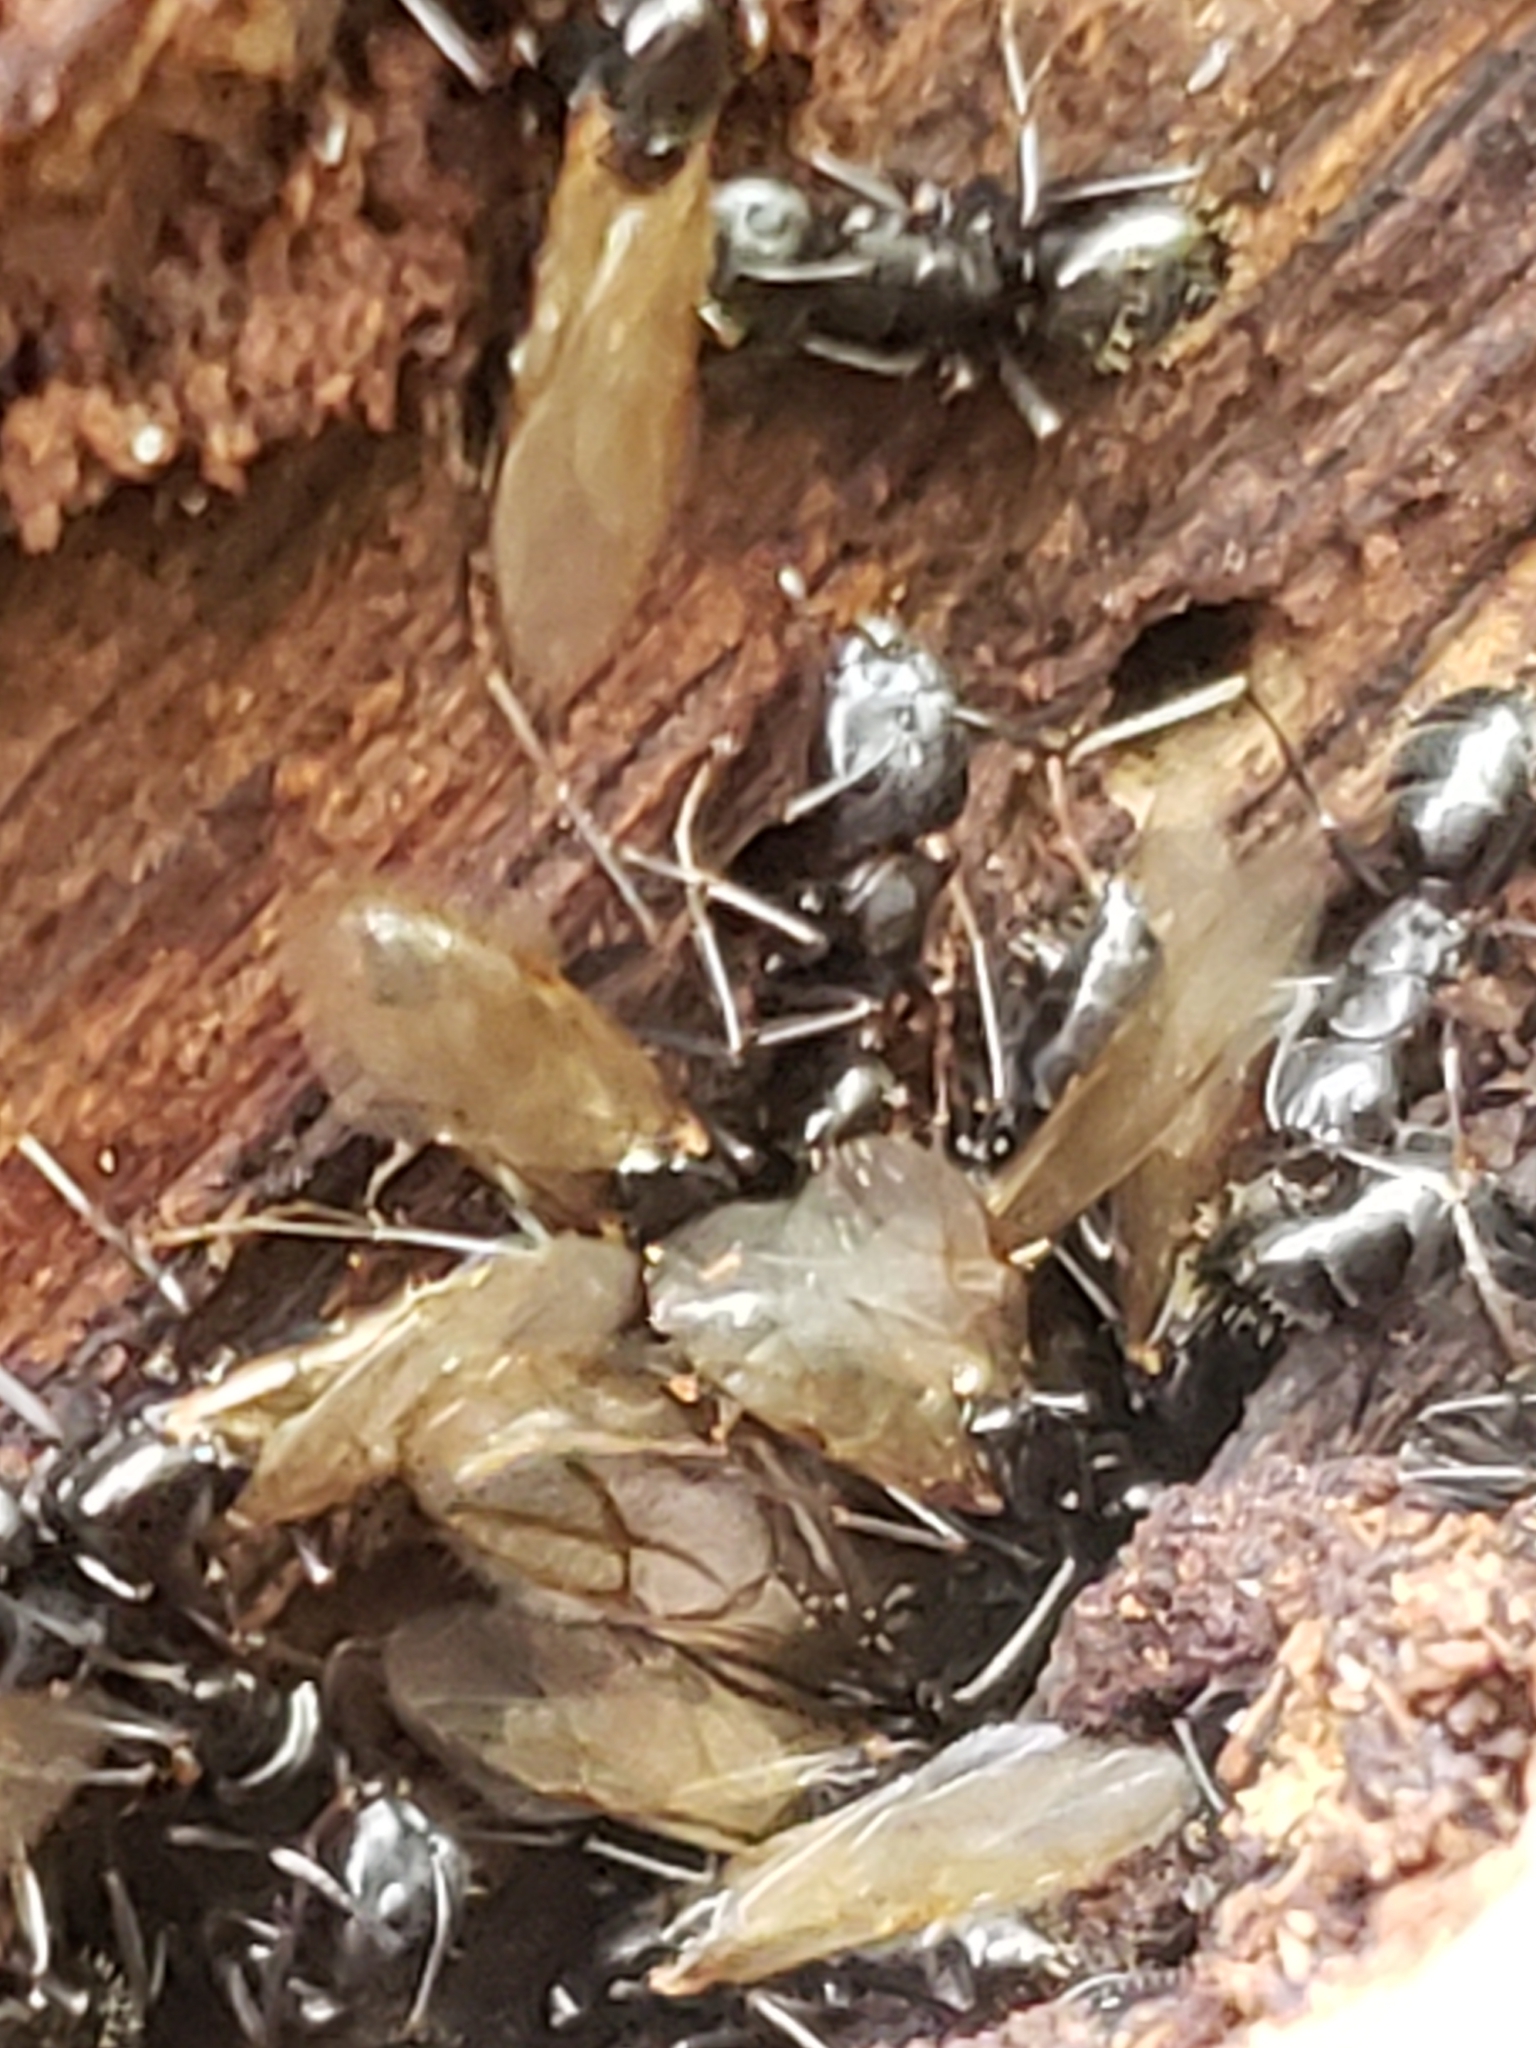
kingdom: Animalia
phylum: Arthropoda
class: Insecta
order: Hymenoptera
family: Formicidae
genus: Camponotus
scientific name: Camponotus pennsylvanicus
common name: Black carpenter ant
